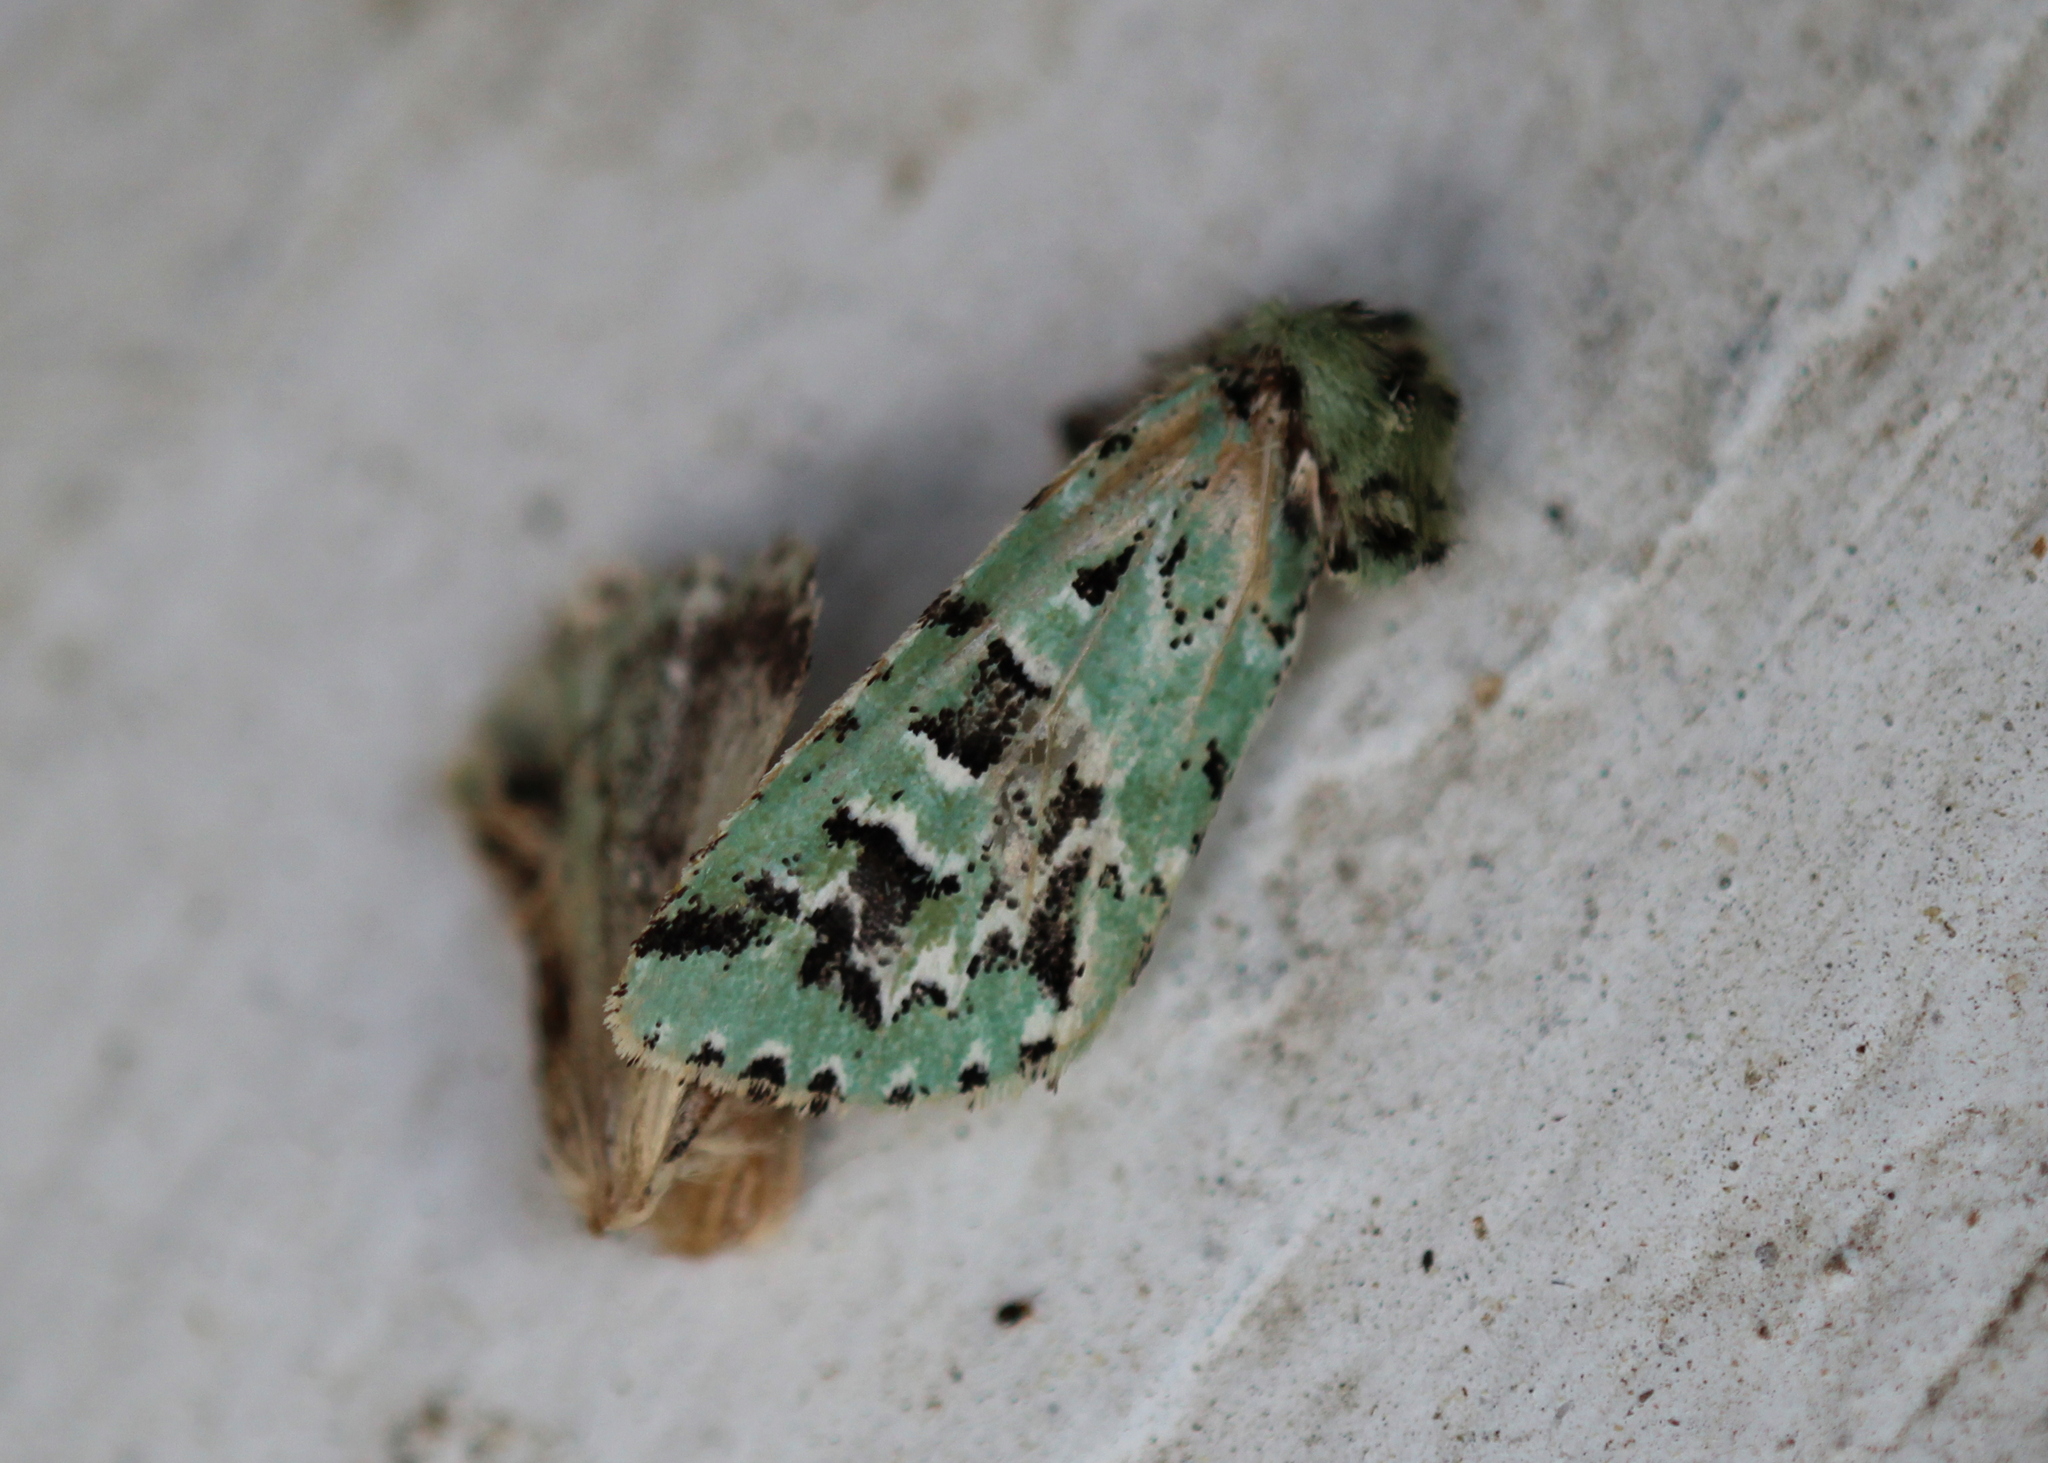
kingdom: Animalia
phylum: Arthropoda
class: Insecta
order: Lepidoptera
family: Noctuidae
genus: Feralia
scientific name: Feralia comstocki
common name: Comstock's sallow
